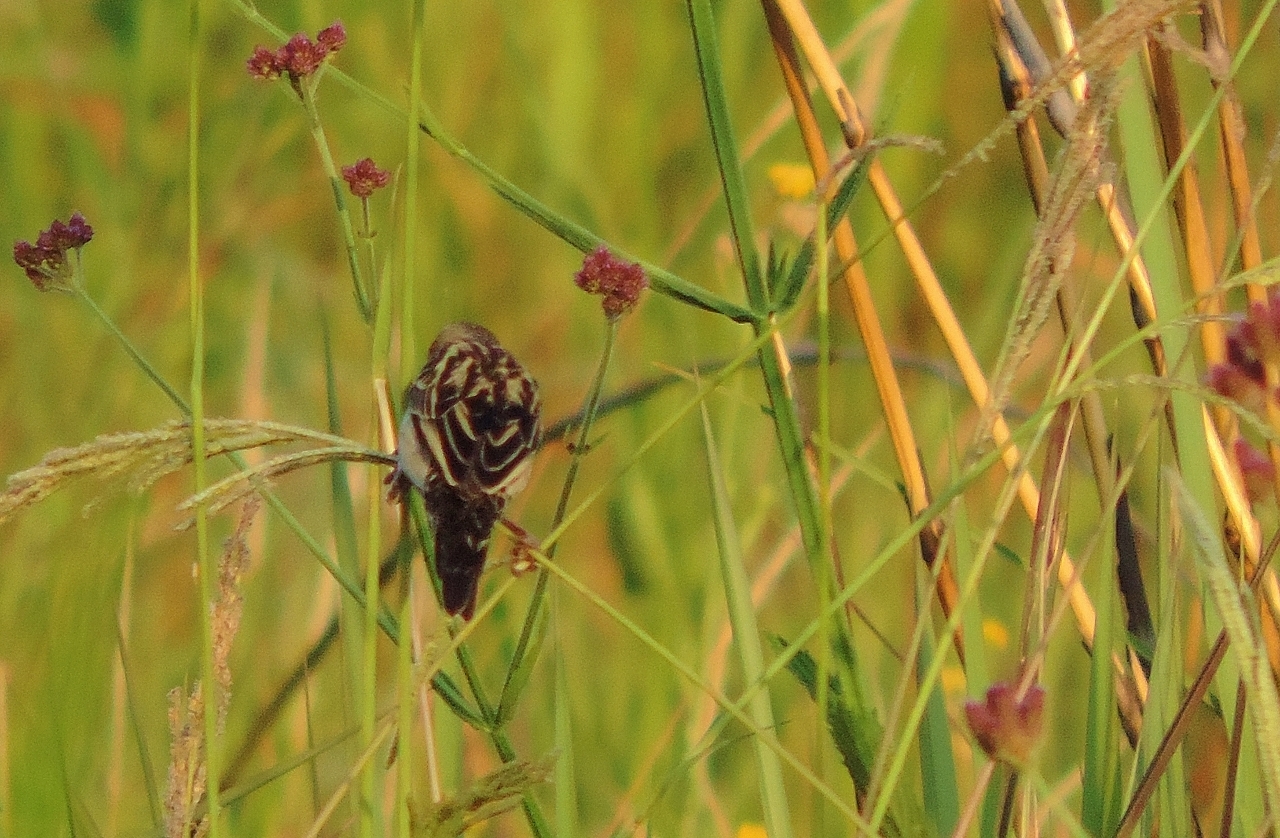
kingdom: Animalia
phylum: Chordata
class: Aves
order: Passeriformes
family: Ploceidae
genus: Euplectes
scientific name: Euplectes ardens
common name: Red-collared widowbird
